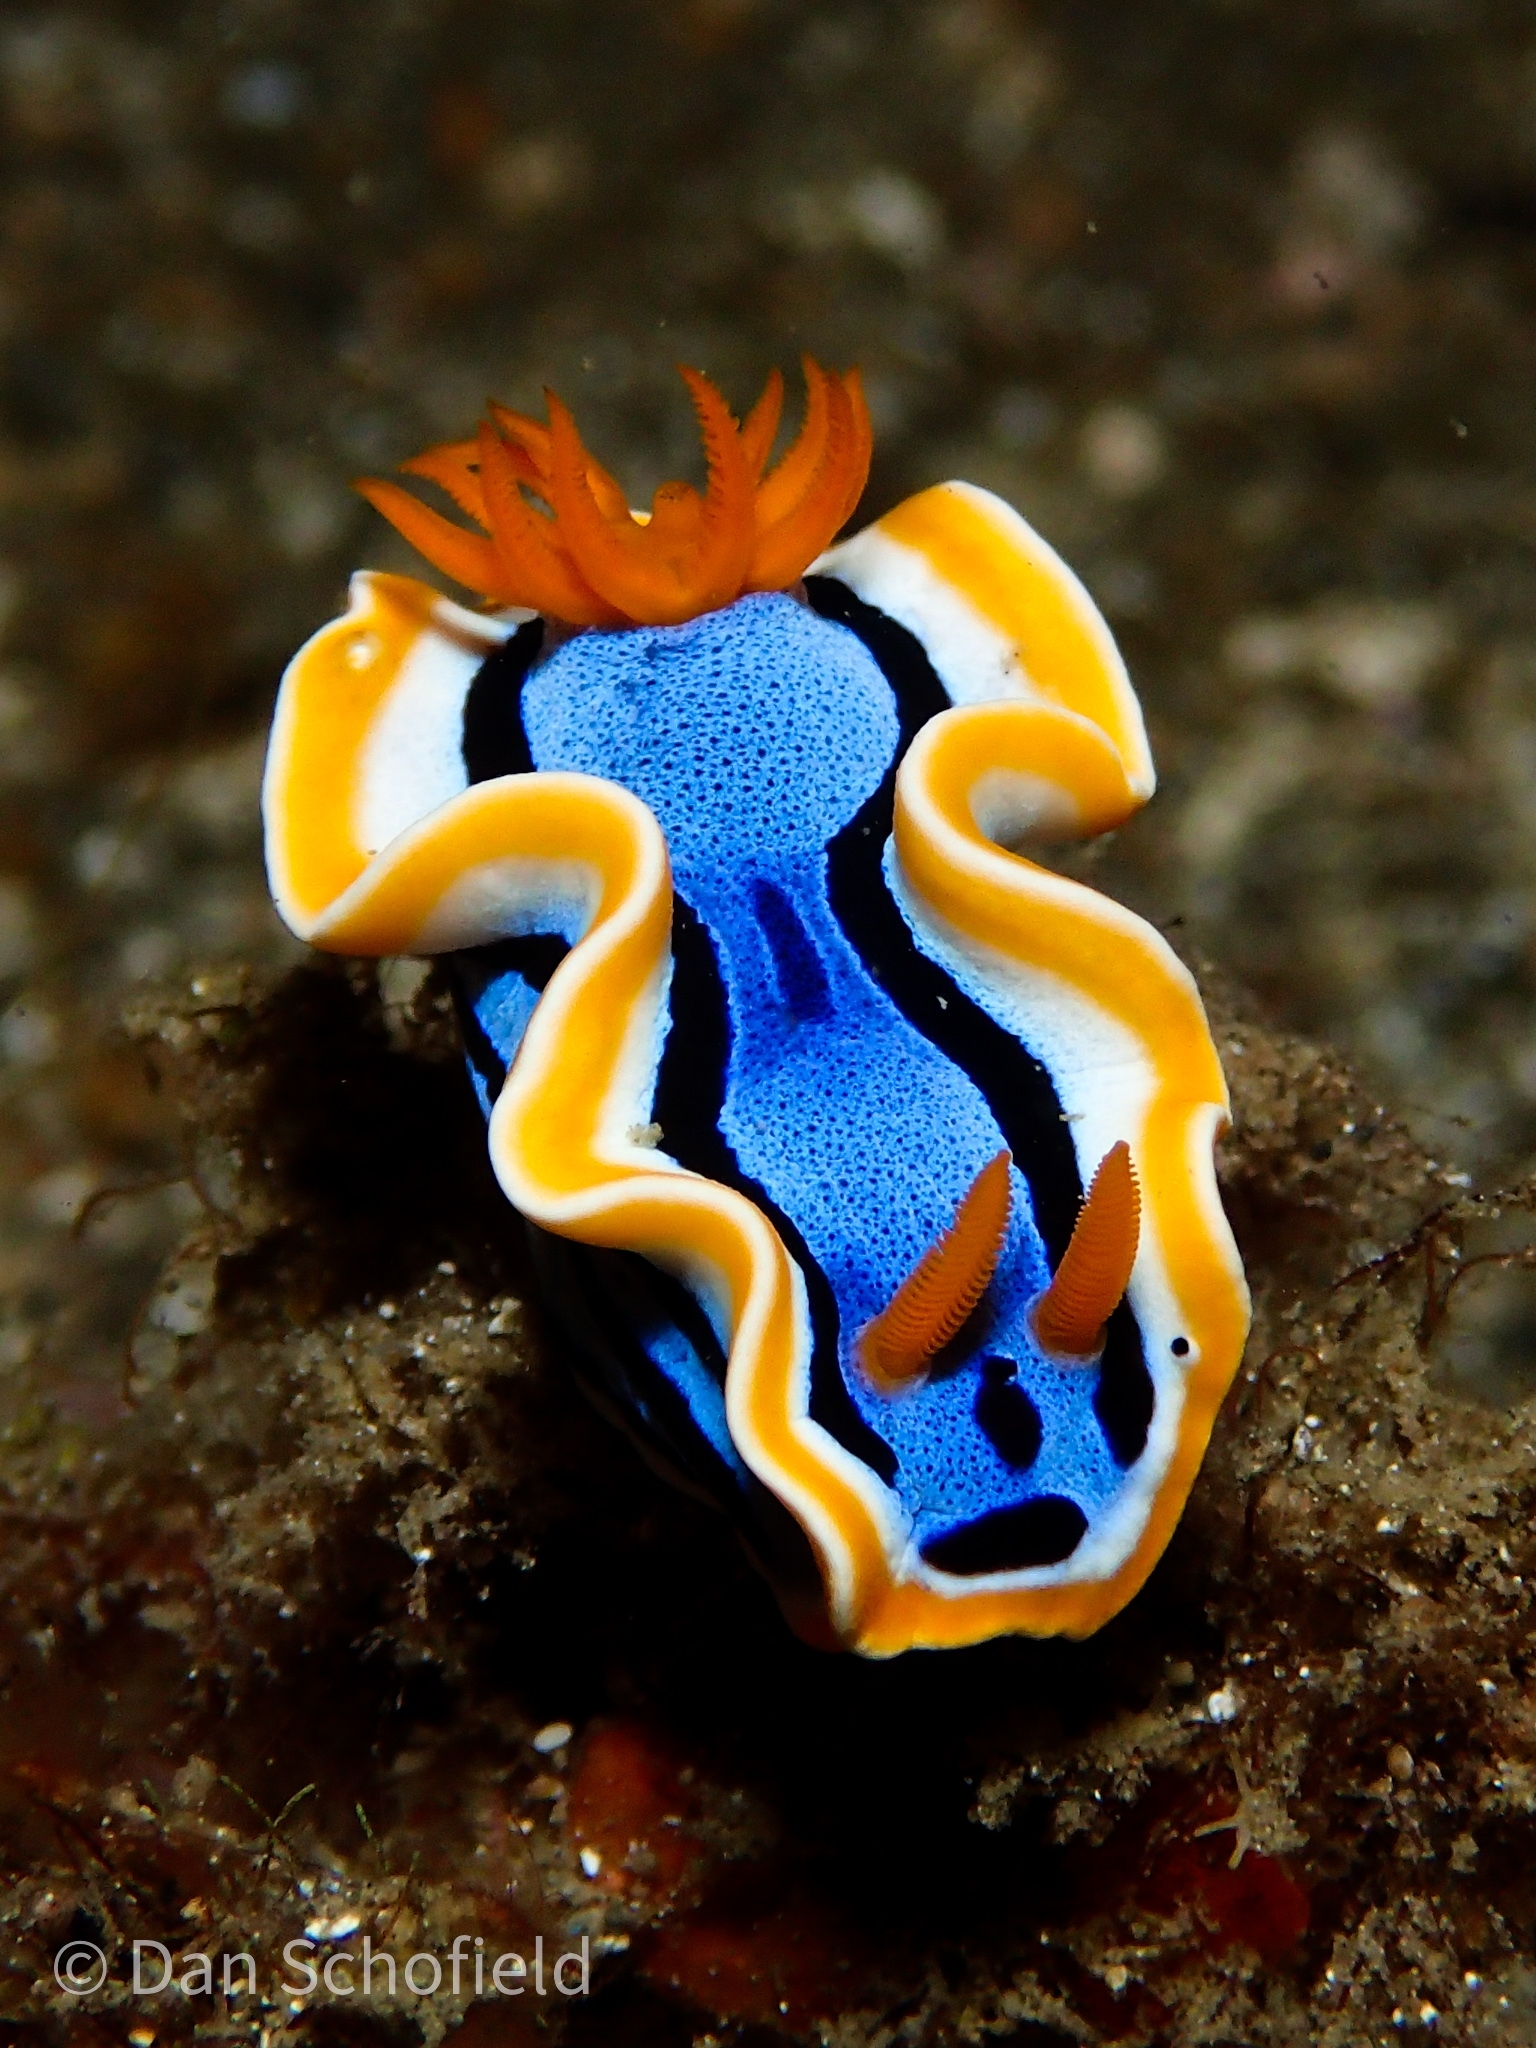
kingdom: Animalia
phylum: Mollusca
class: Gastropoda
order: Nudibranchia
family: Chromodorididae
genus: Chromodoris
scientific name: Chromodoris annae
